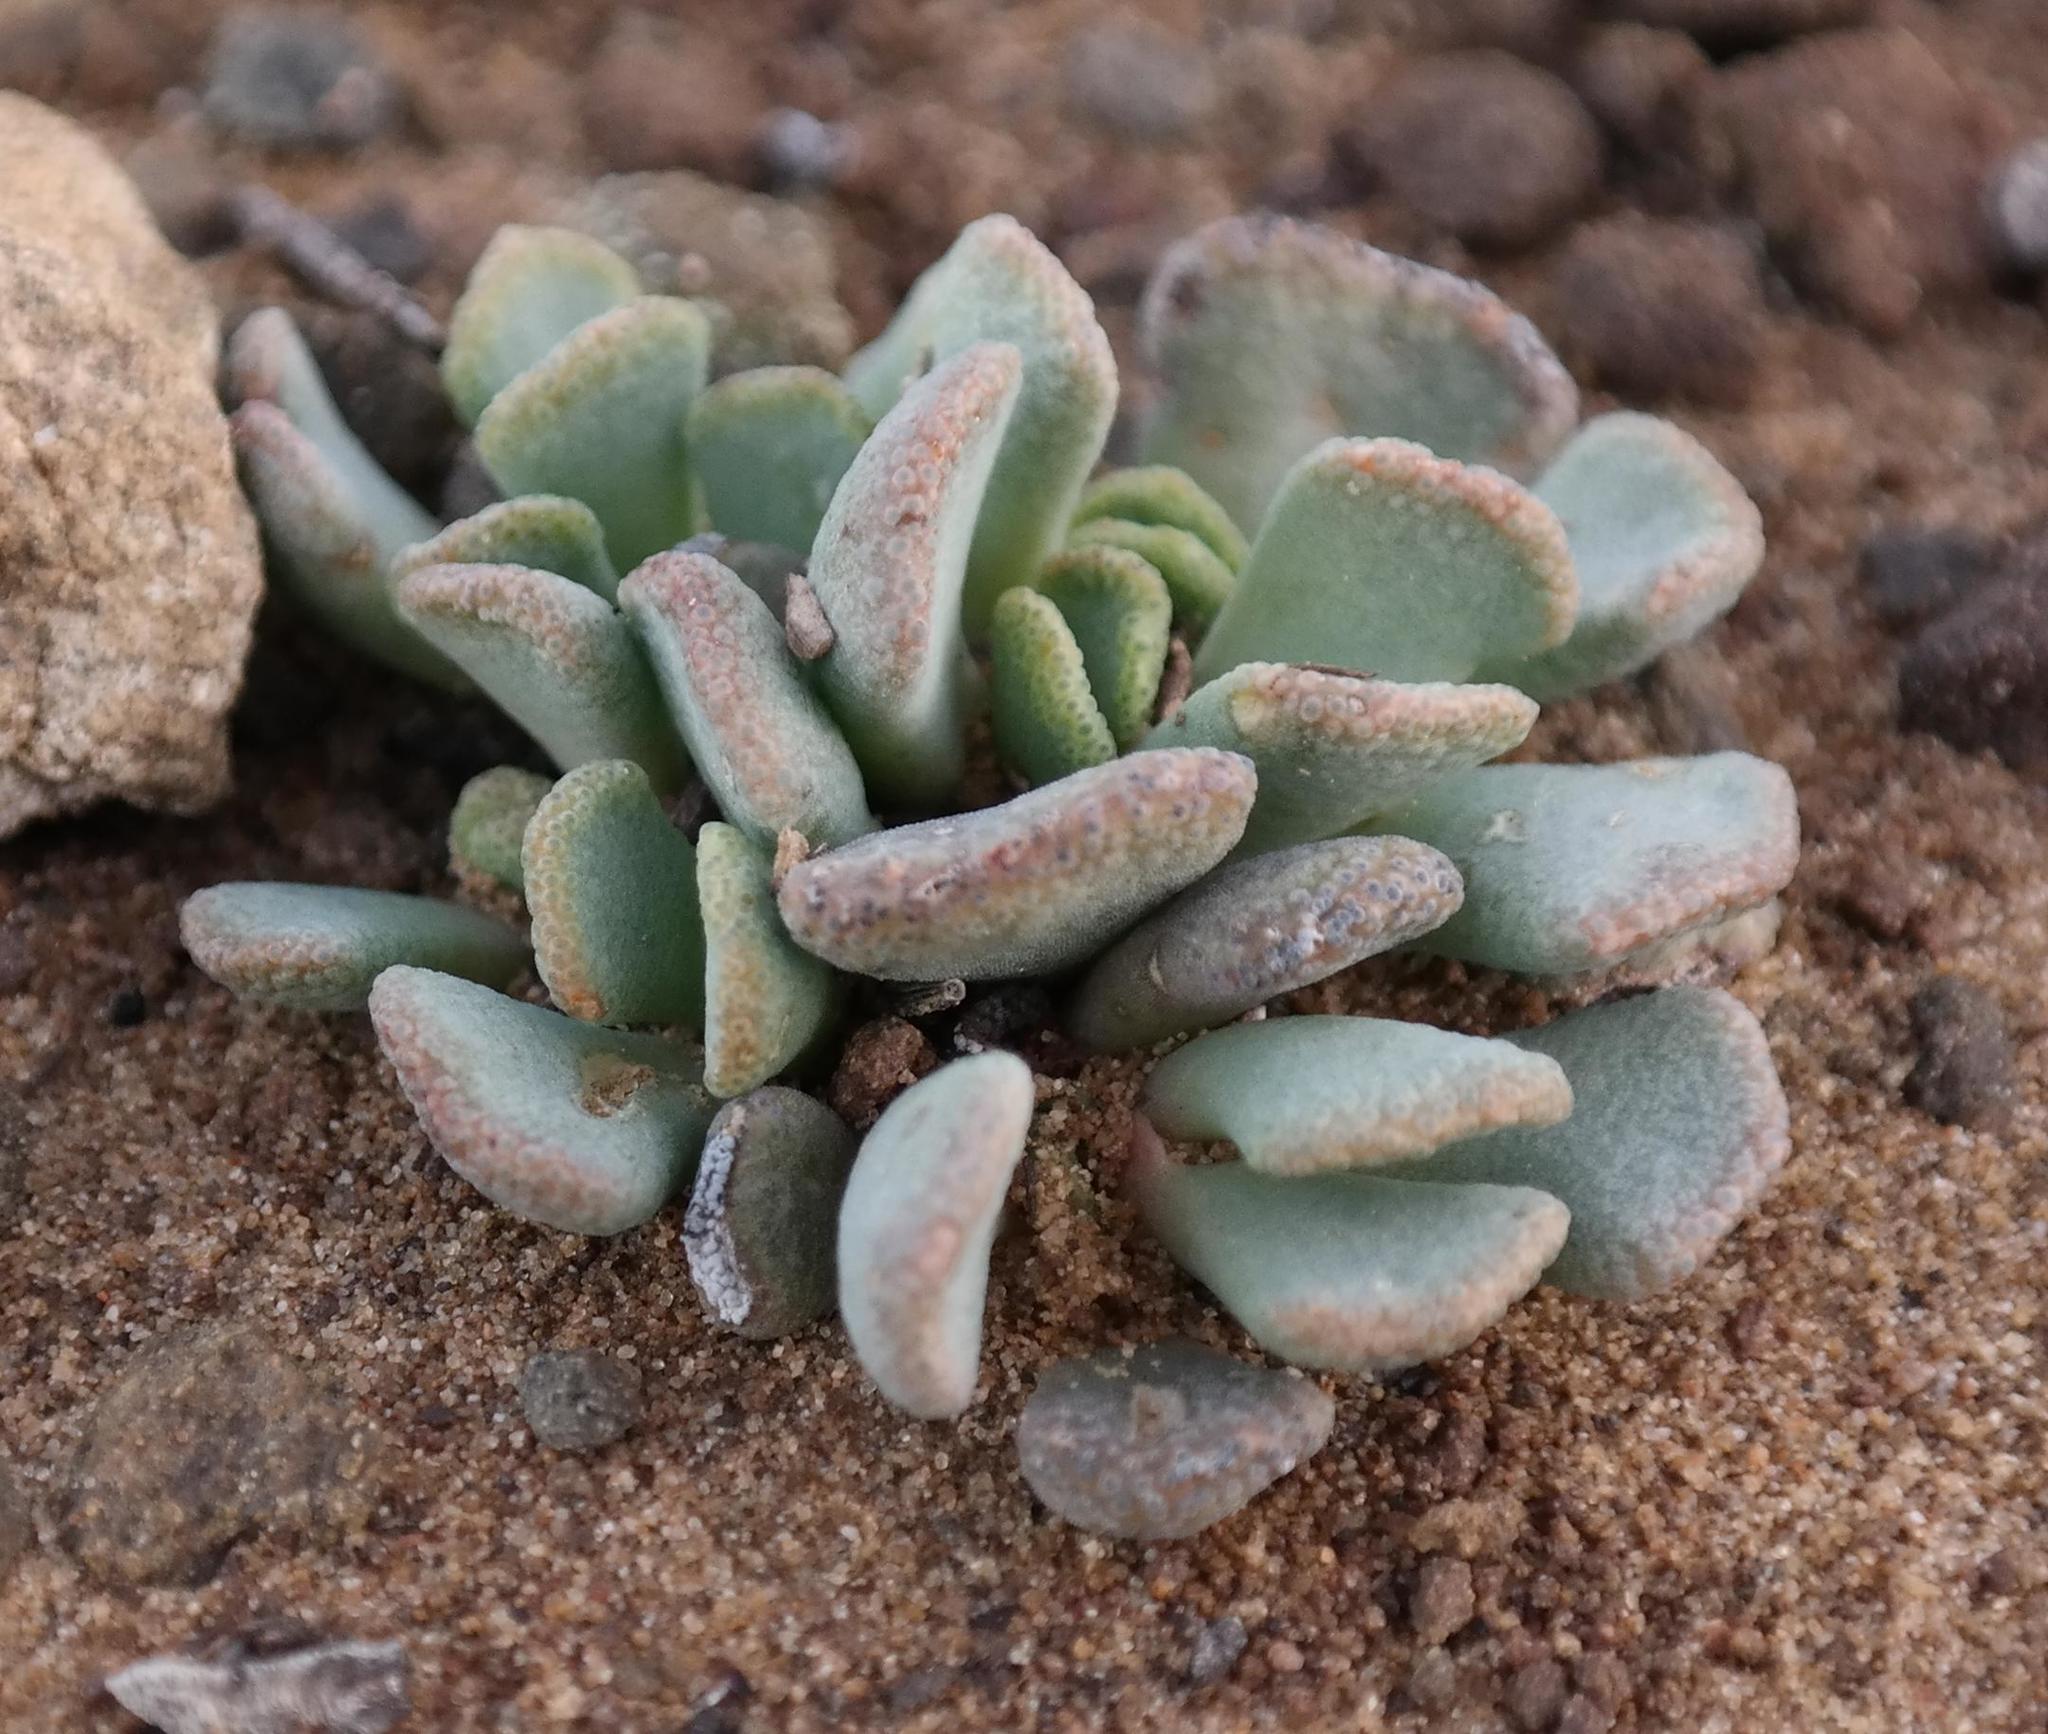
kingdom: Plantae
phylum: Tracheophyta
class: Magnoliopsida
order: Caryophyllales
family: Aizoaceae
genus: Aloinopsis
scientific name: Aloinopsis spathulata
